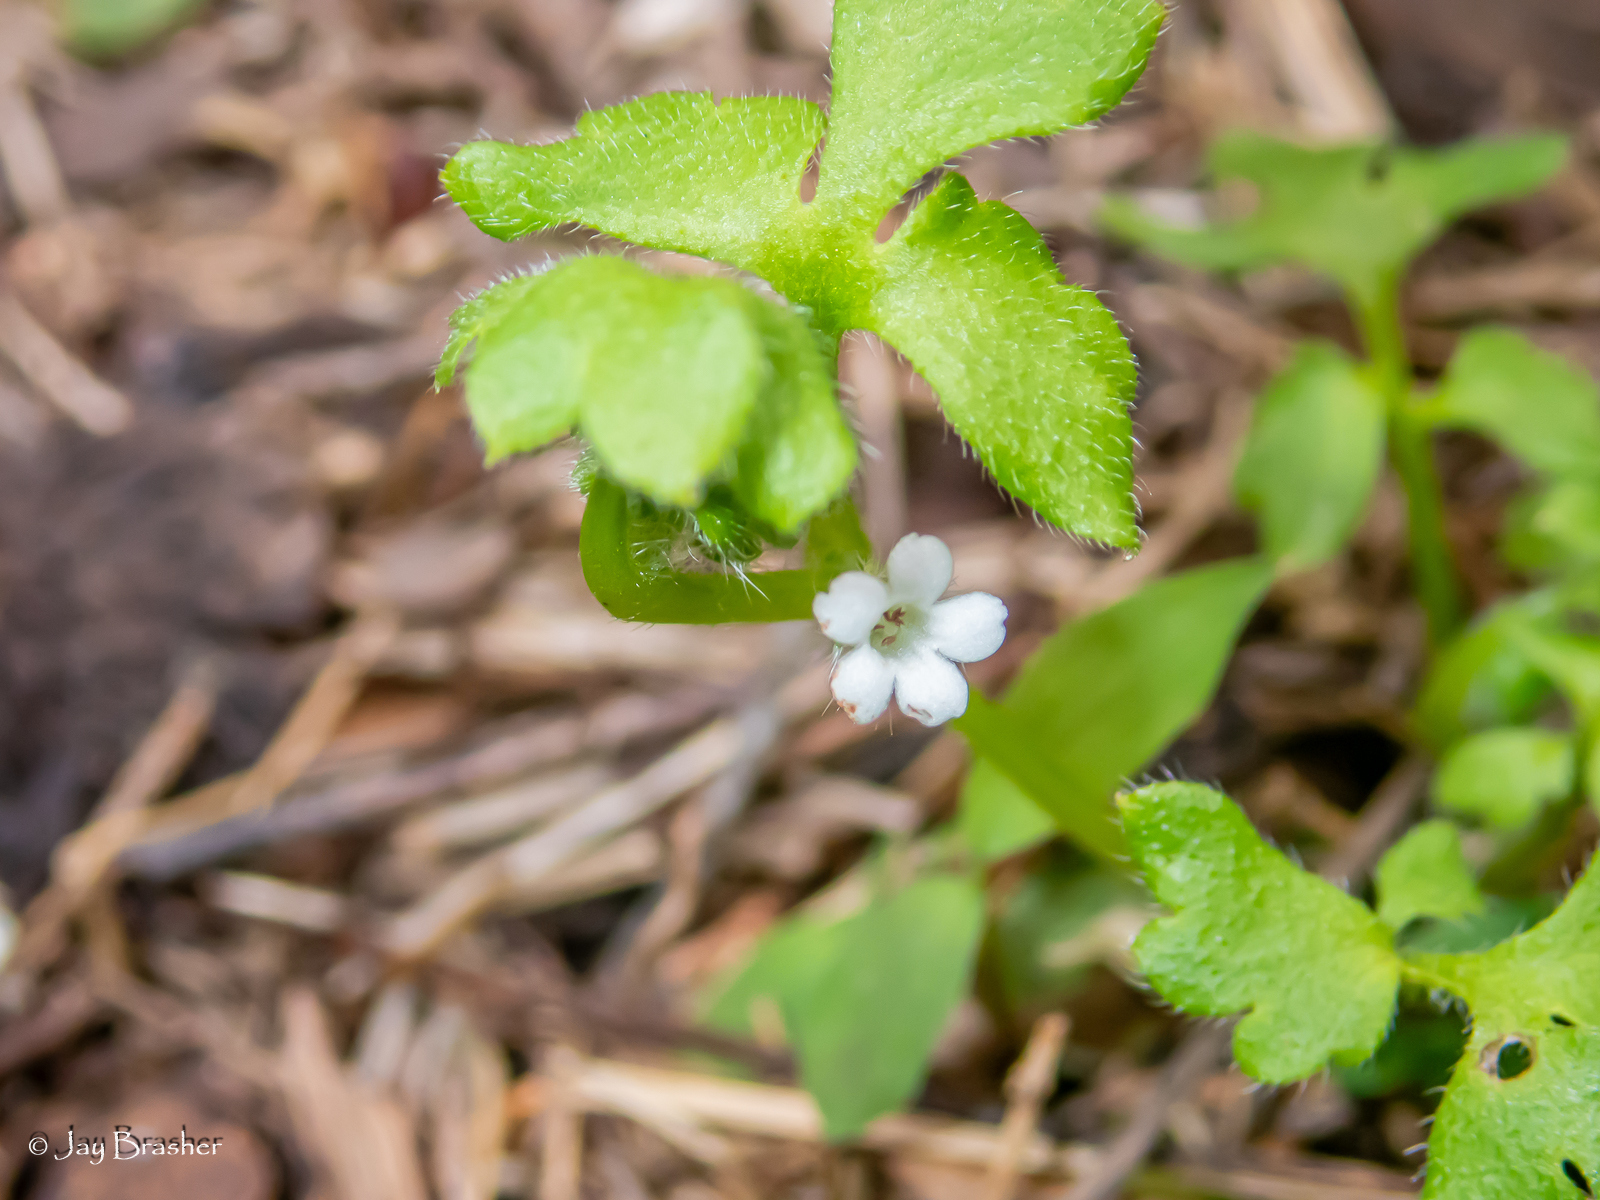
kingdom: Plantae
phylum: Tracheophyta
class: Magnoliopsida
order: Boraginales
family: Hydrophyllaceae
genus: Nemophila
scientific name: Nemophila aphylla
